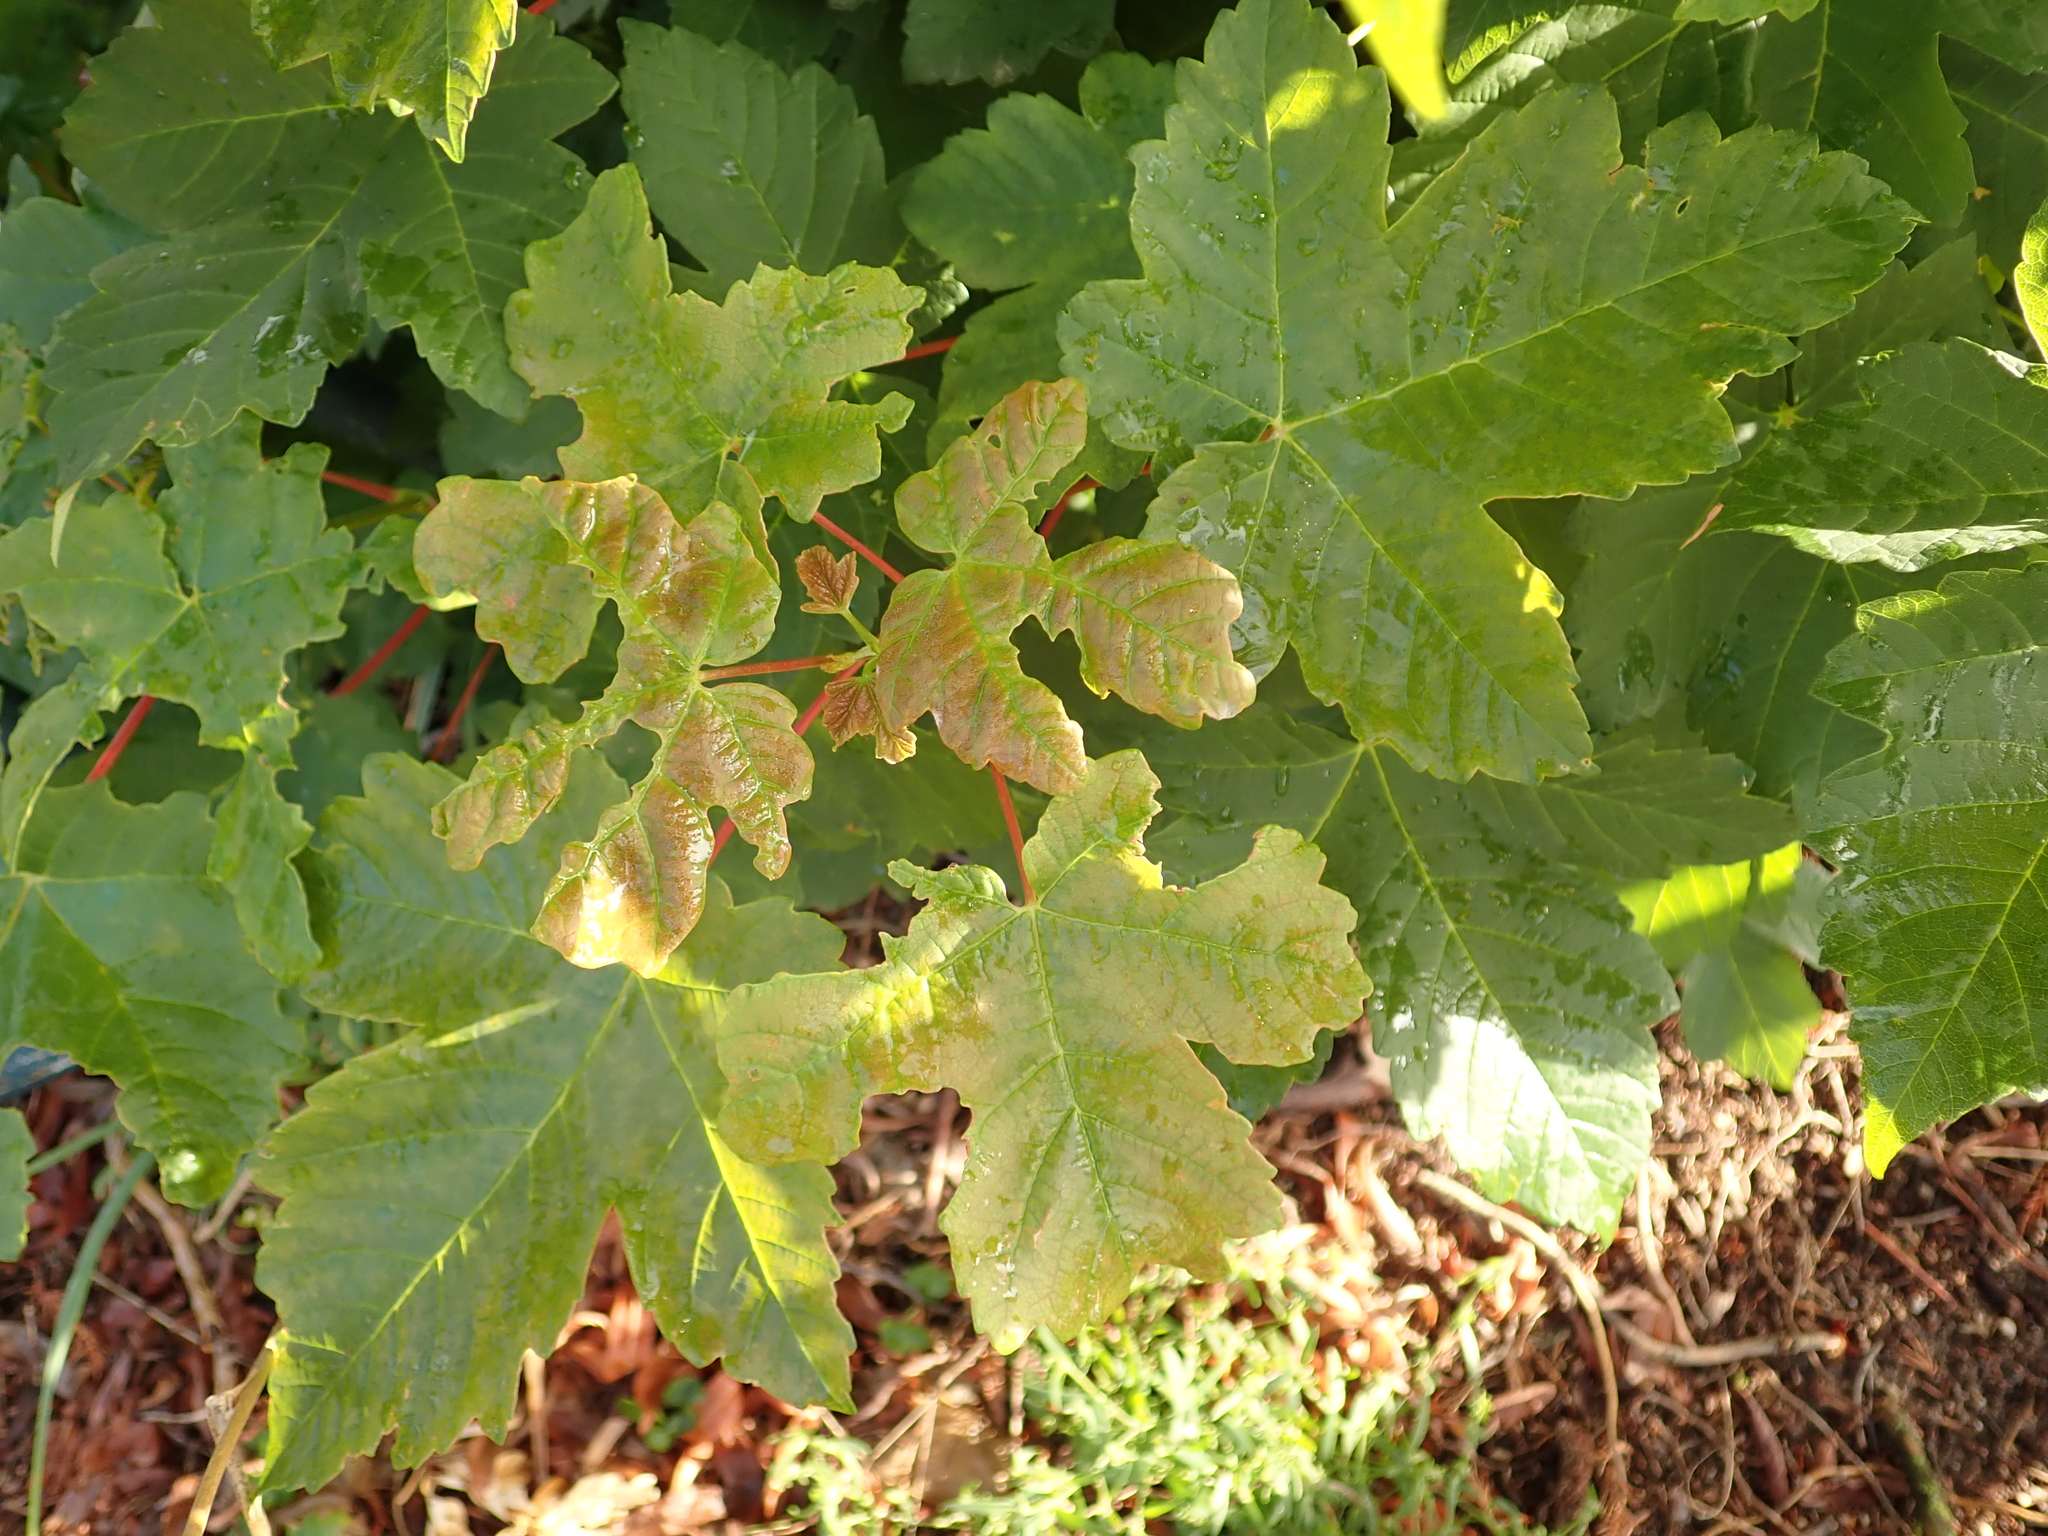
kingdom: Plantae
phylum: Tracheophyta
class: Magnoliopsida
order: Sapindales
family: Sapindaceae
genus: Acer
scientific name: Acer pseudoplatanus
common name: Sycamore
